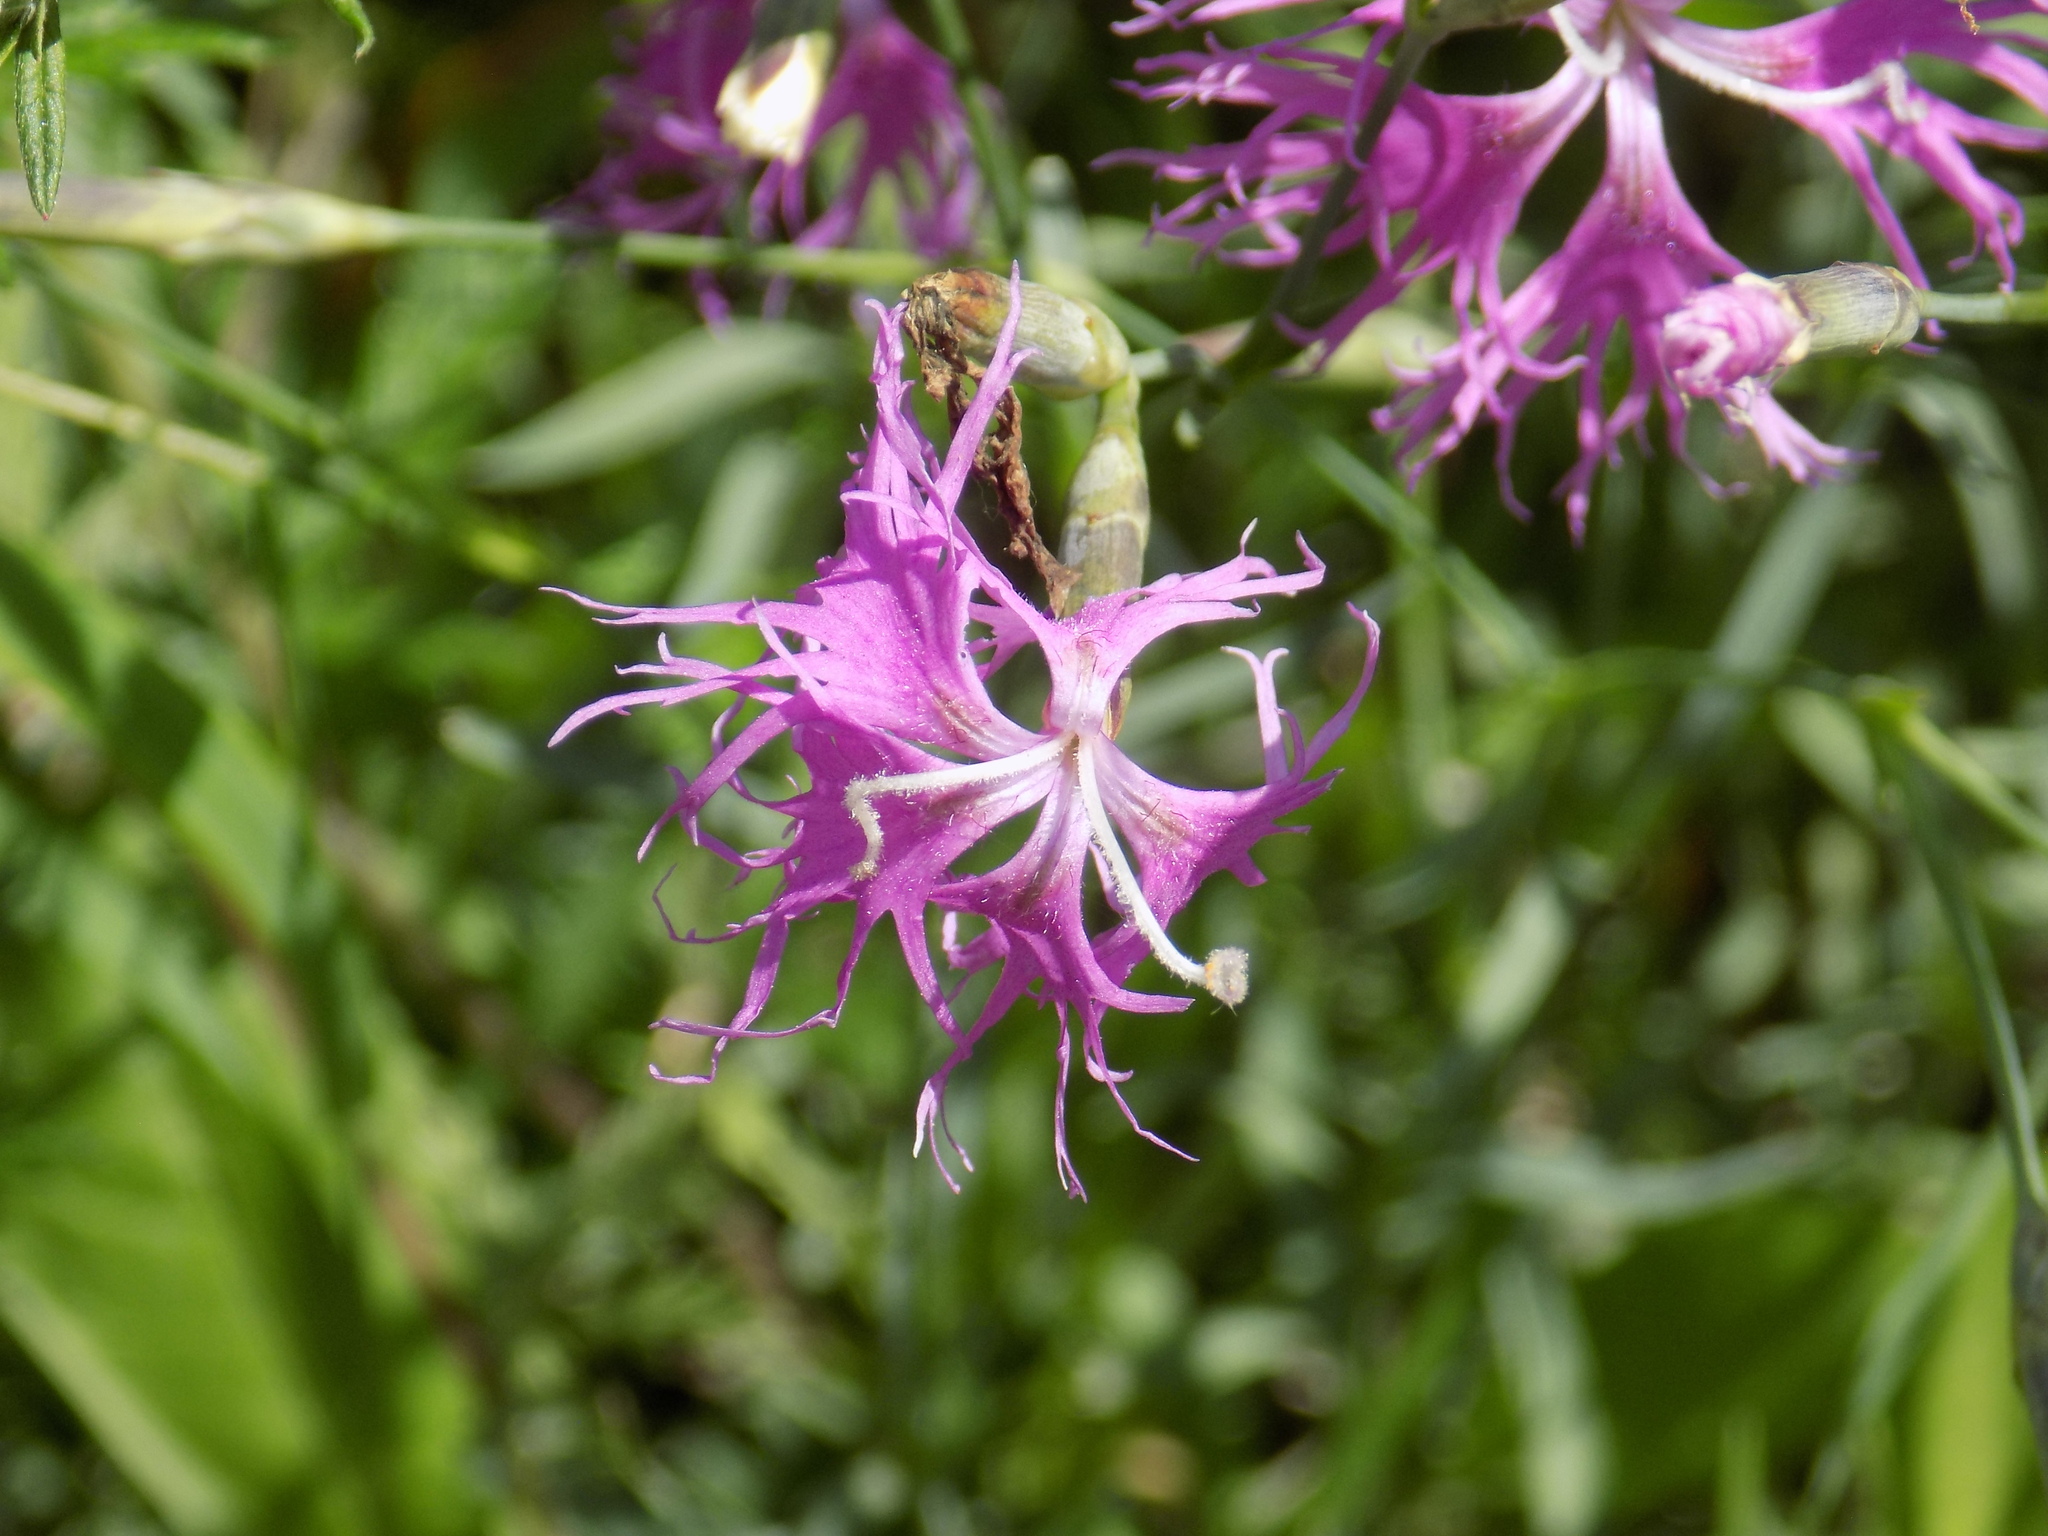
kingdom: Plantae
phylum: Tracheophyta
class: Magnoliopsida
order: Caryophyllales
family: Caryophyllaceae
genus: Dianthus
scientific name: Dianthus superbus
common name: Fringed pink
